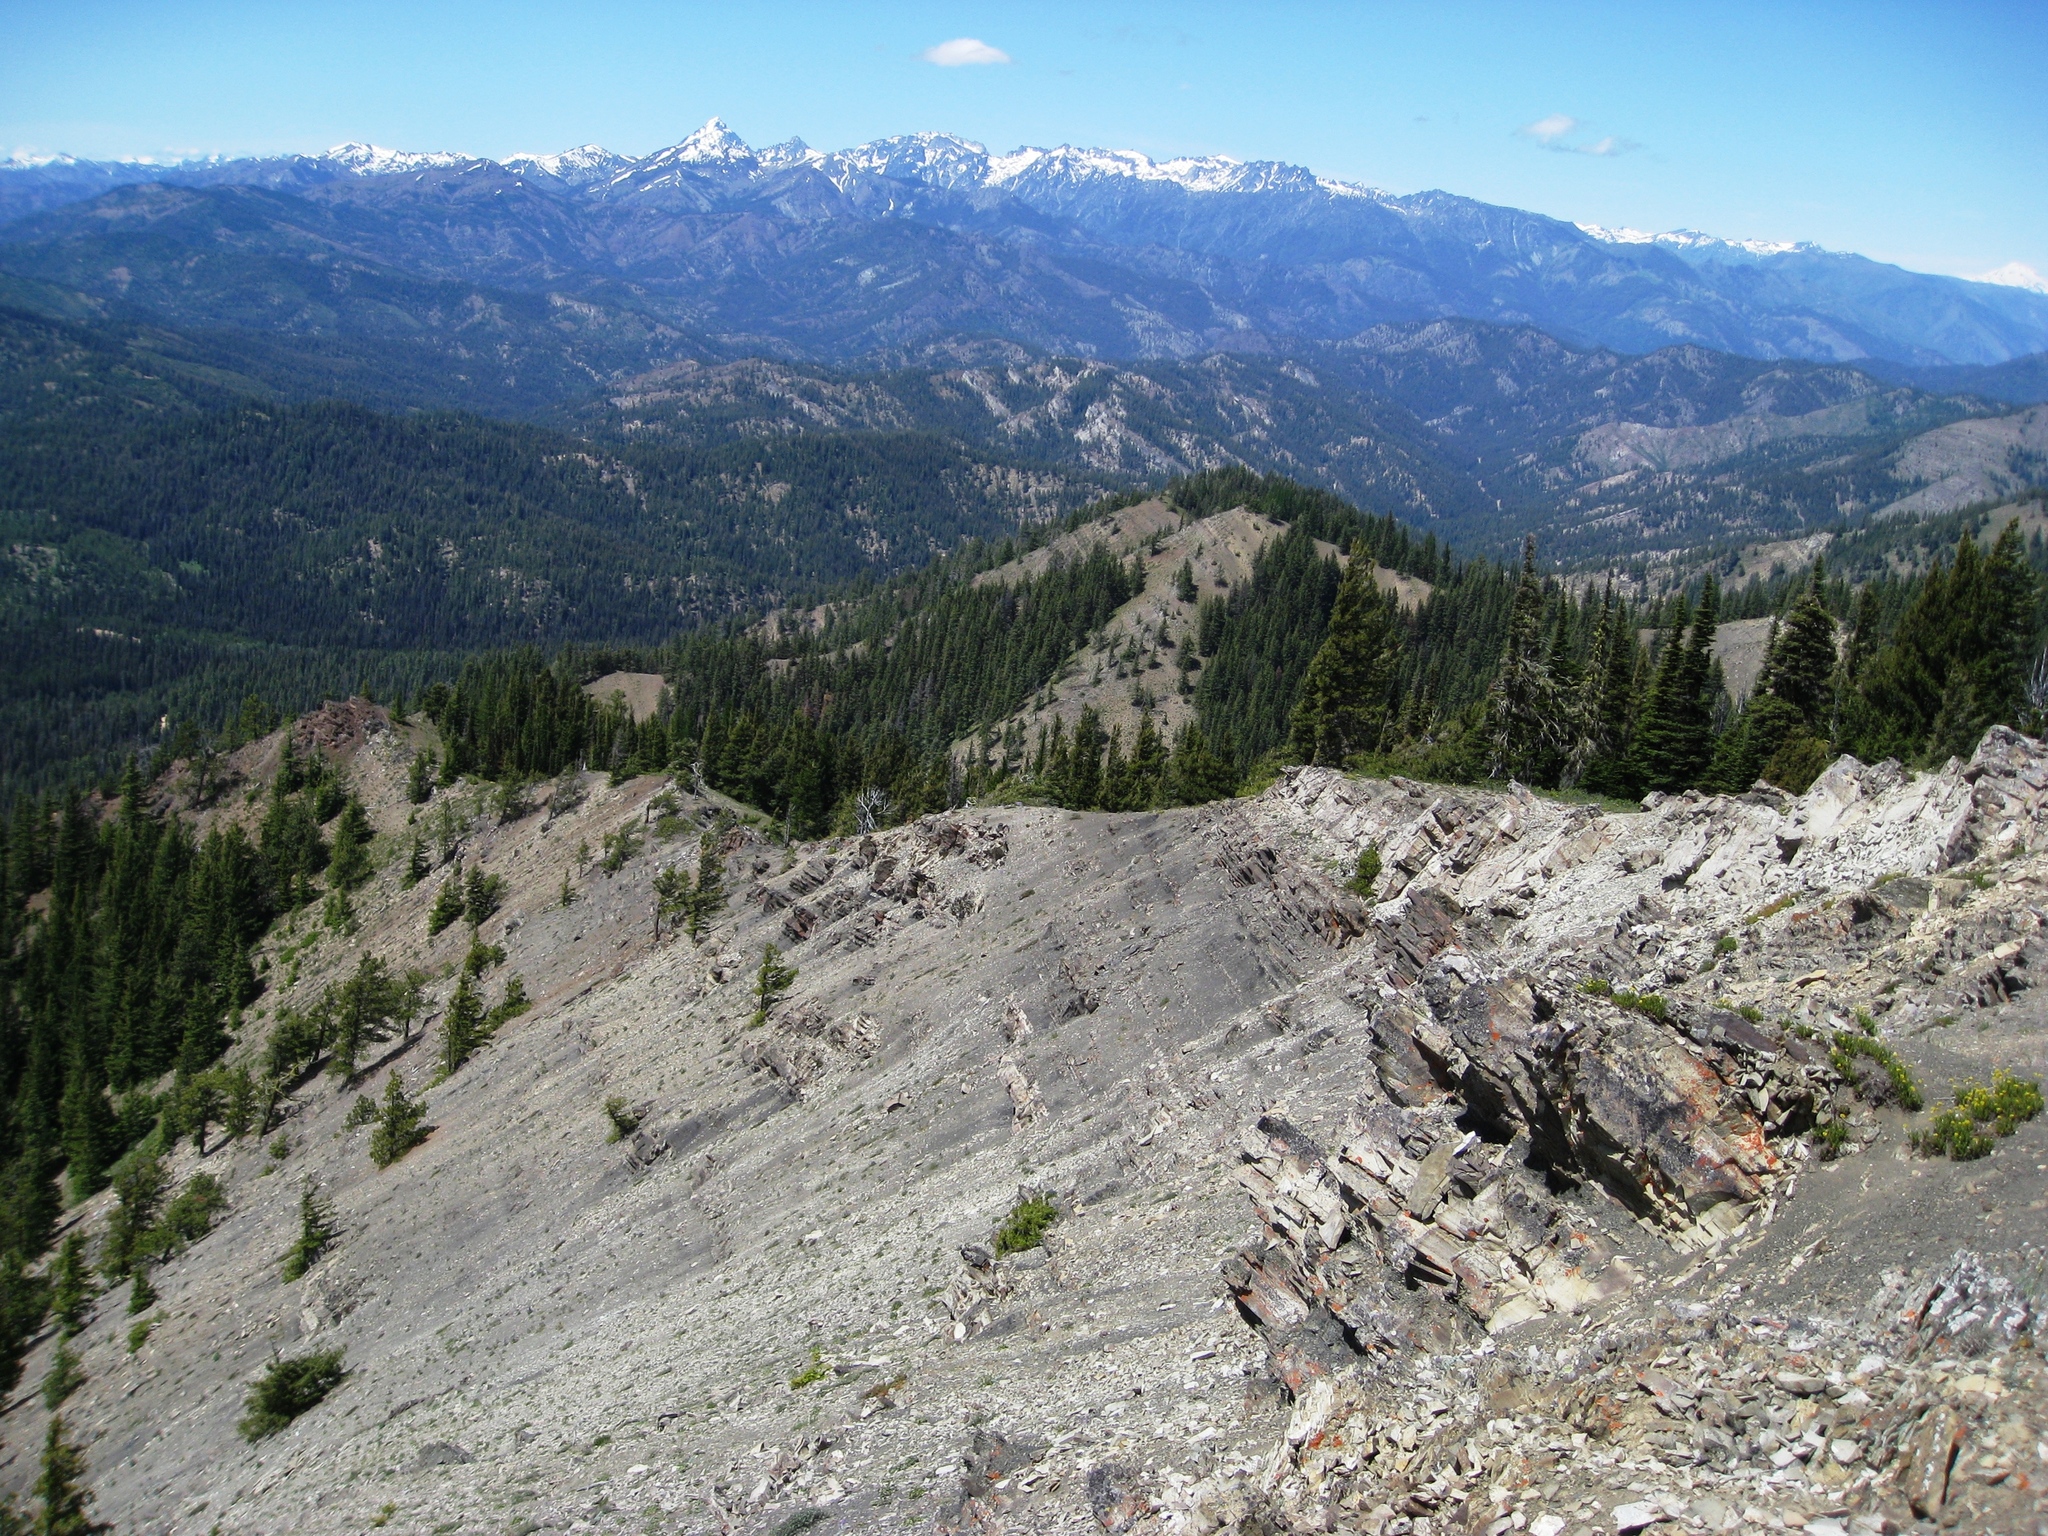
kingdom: Plantae
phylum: Tracheophyta
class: Magnoliopsida
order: Ranunculales
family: Ranunculaceae
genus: Delphinium
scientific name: Delphinium glareosum
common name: Olympic mountain larkspur
